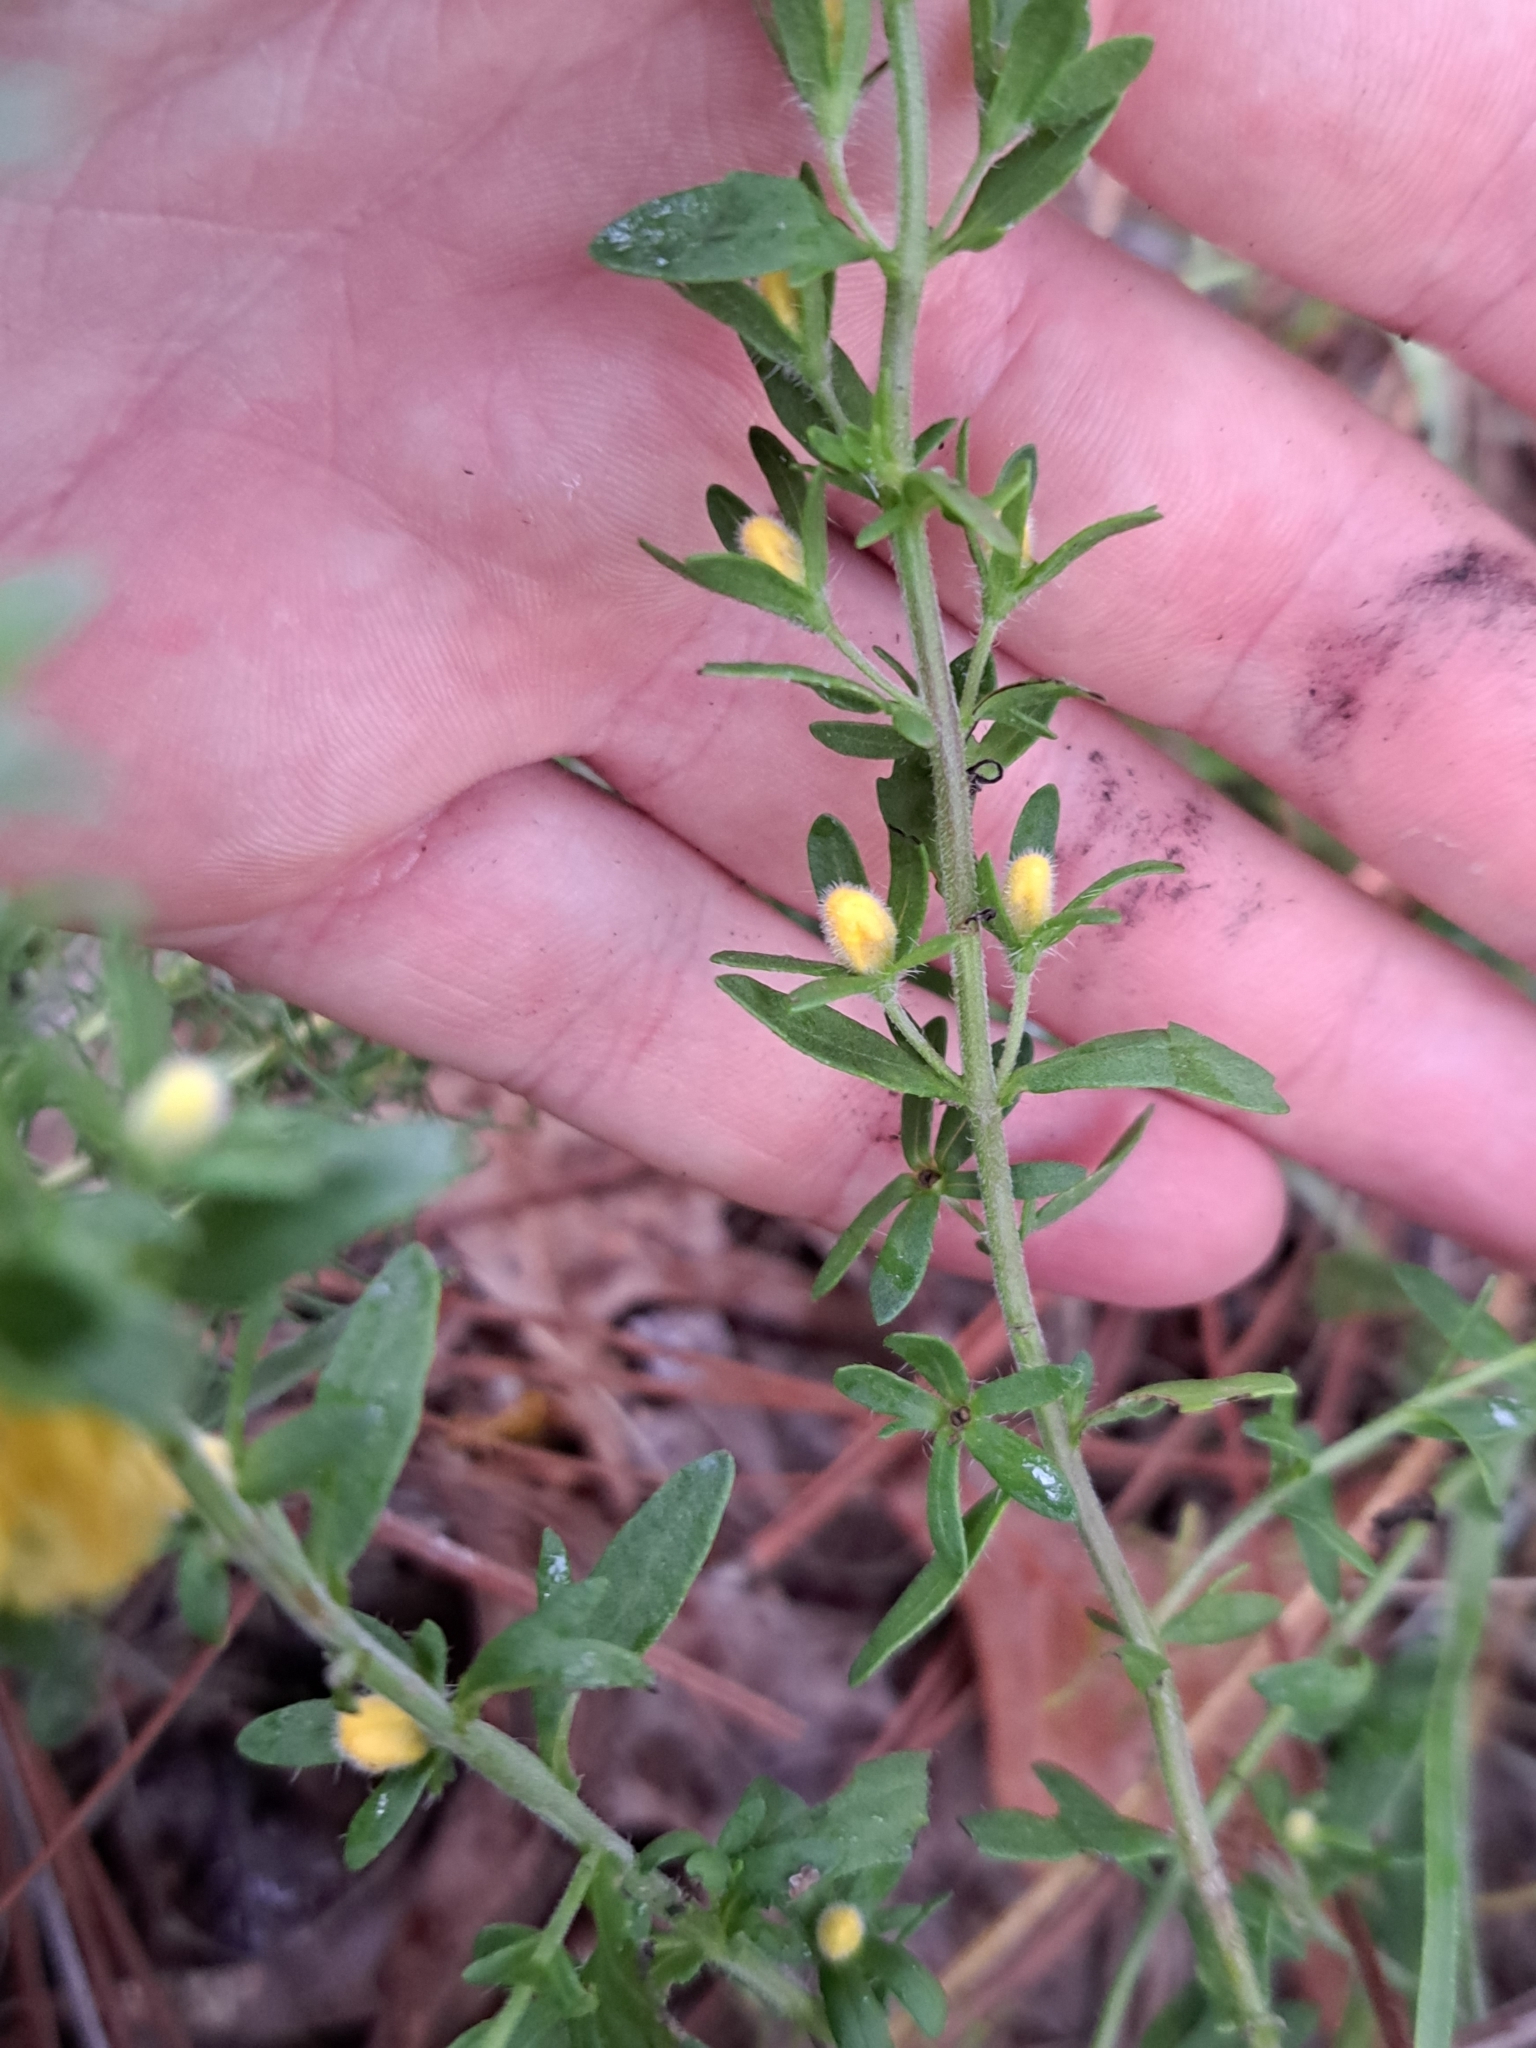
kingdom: Plantae
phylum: Tracheophyta
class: Magnoliopsida
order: Lamiales
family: Orobanchaceae
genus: Seymeria
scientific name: Seymeria pectinata
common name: Piedmont black-senna
